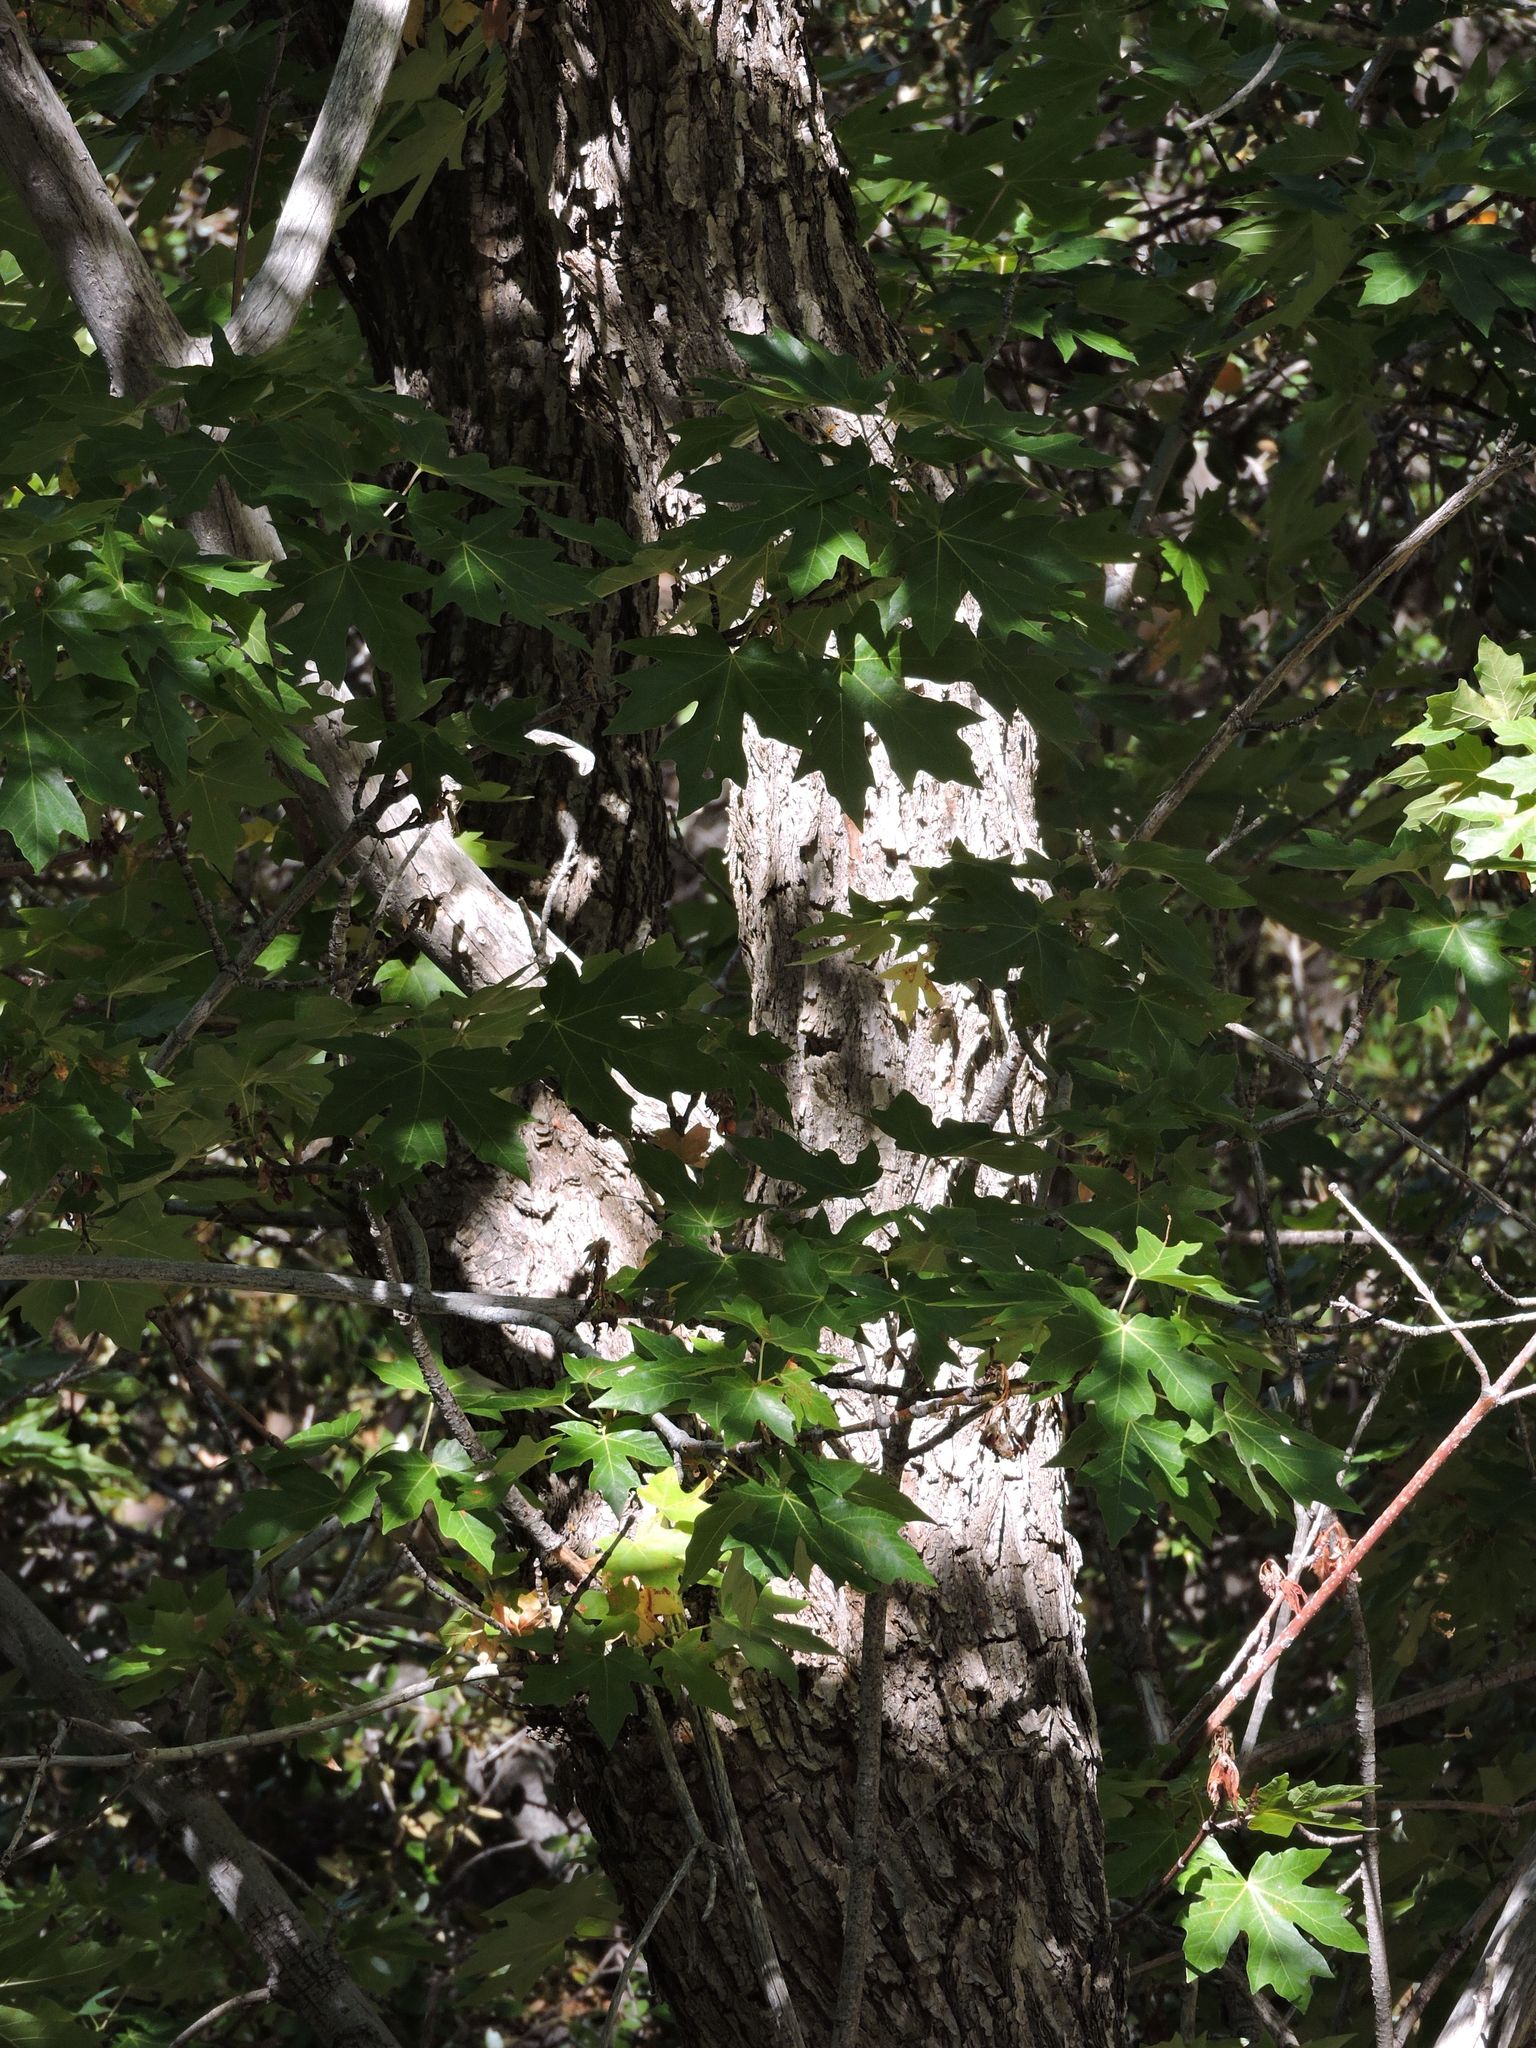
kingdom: Plantae
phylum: Tracheophyta
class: Magnoliopsida
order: Sapindales
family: Sapindaceae
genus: Acer
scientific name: Acer macrophyllum
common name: Oregon maple
